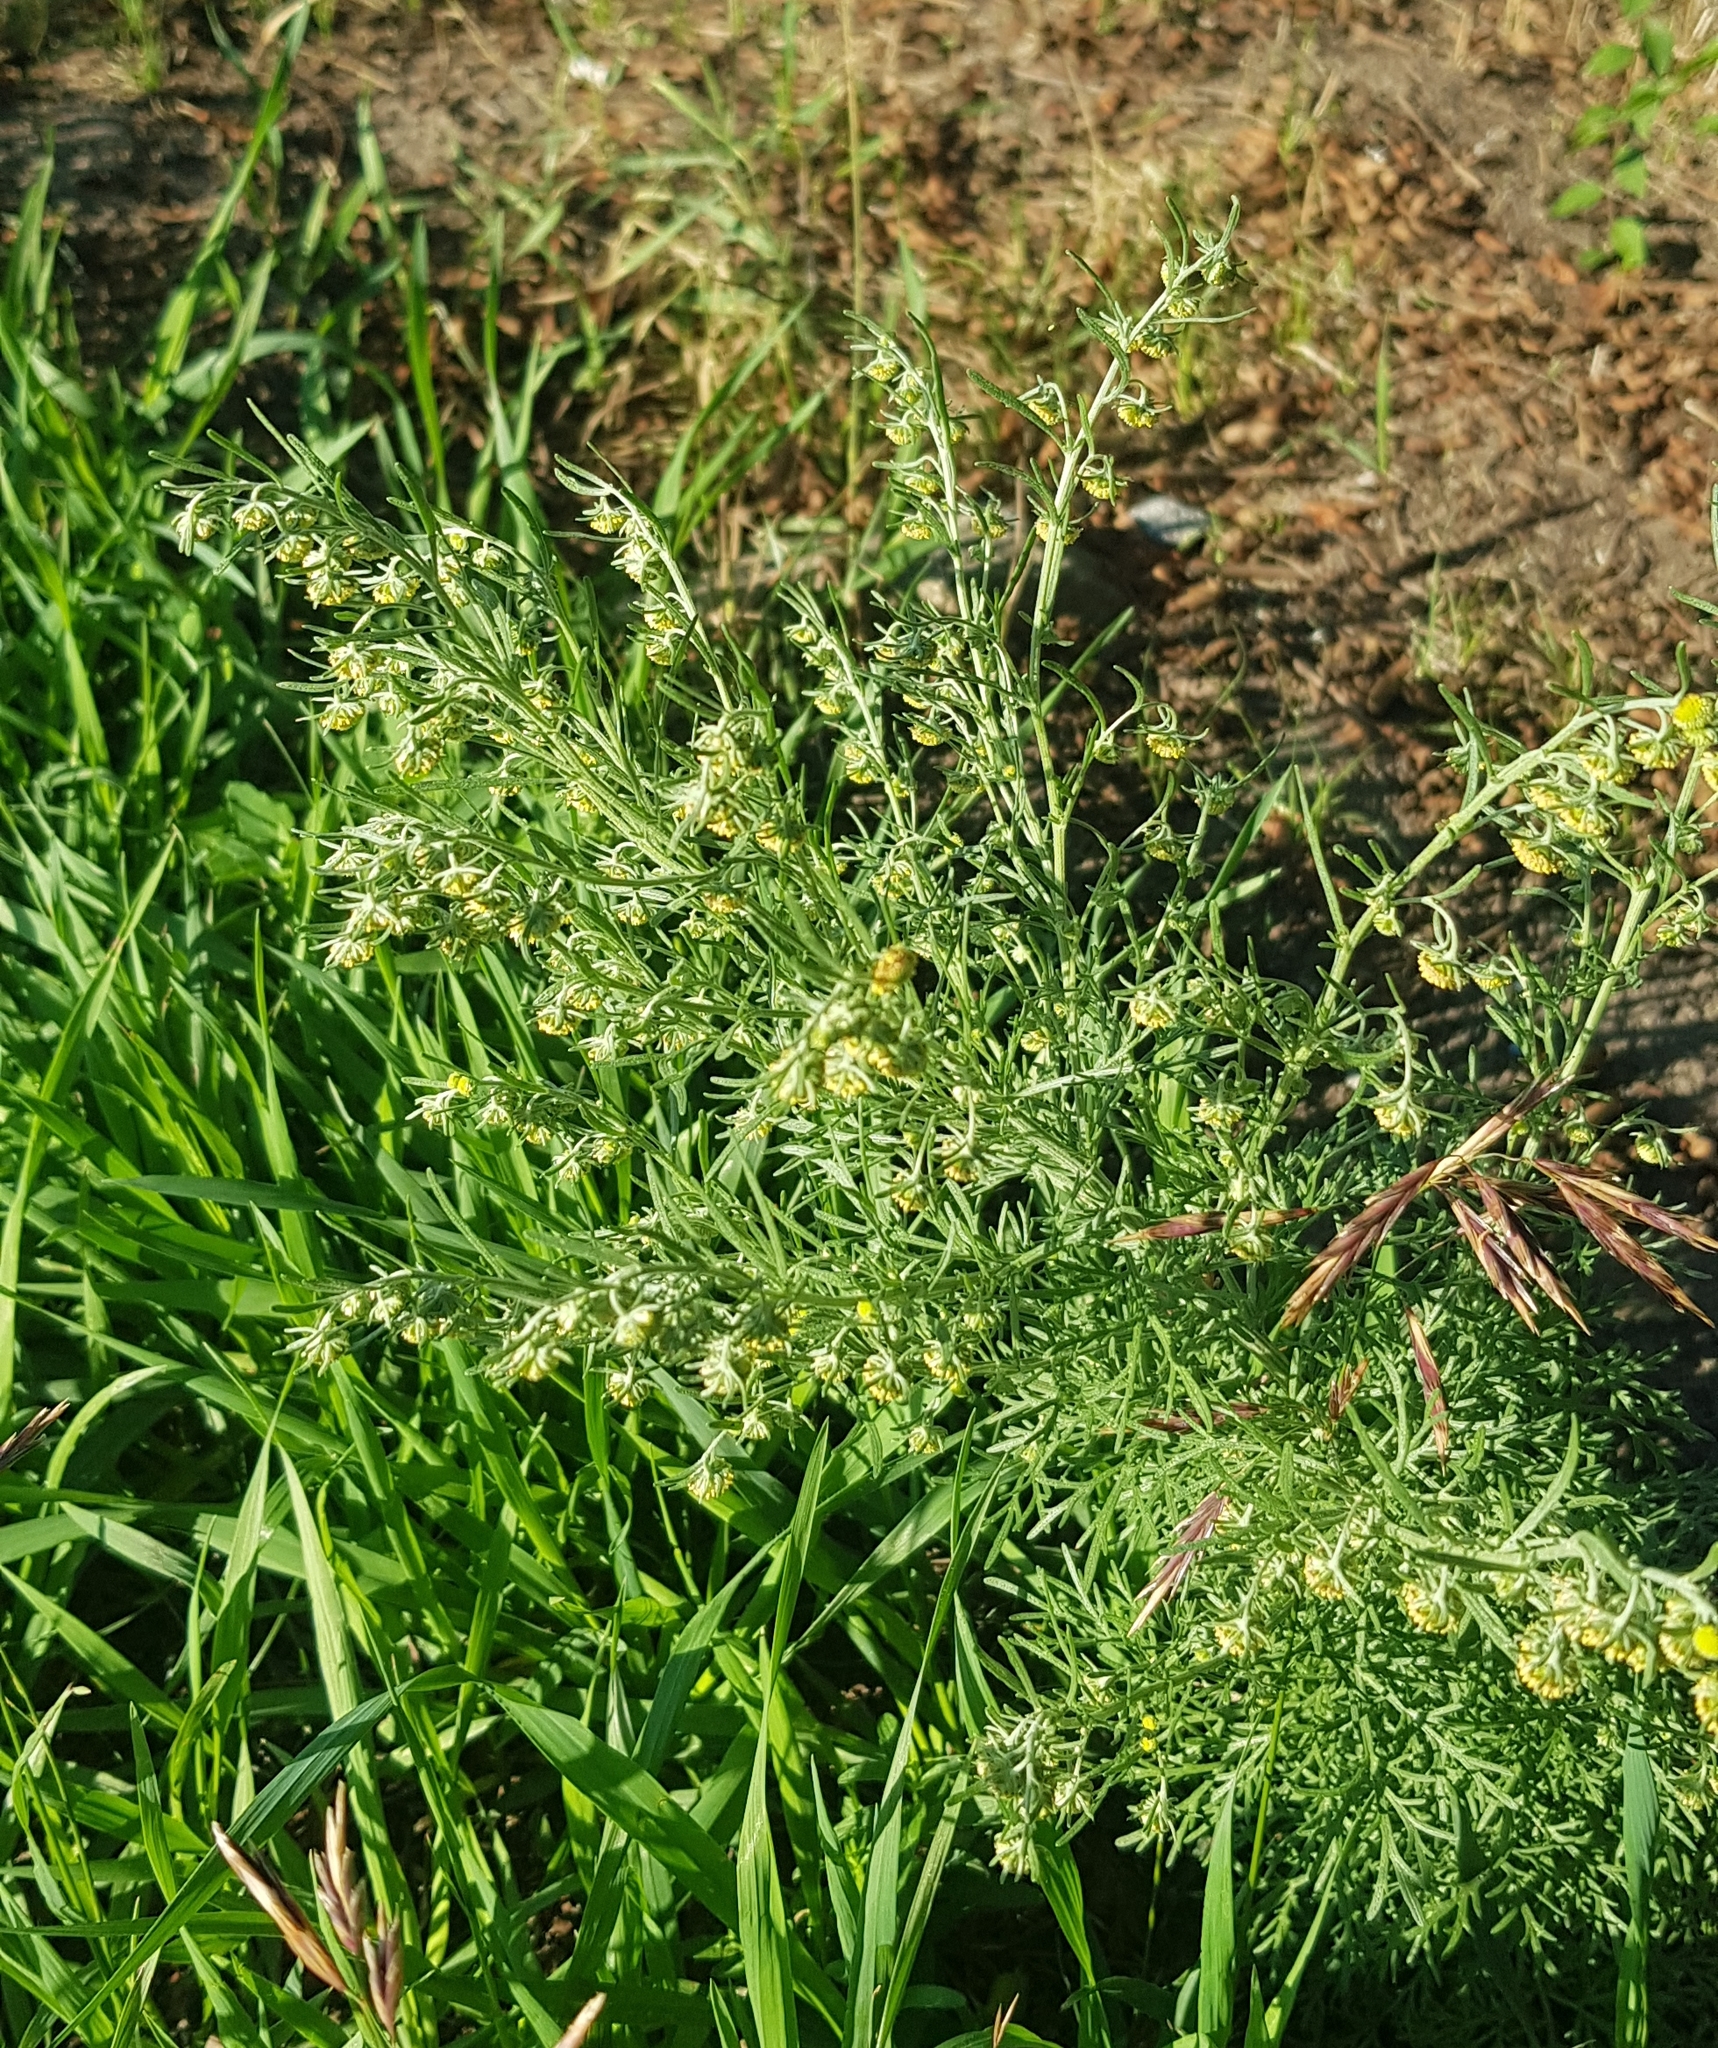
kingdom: Plantae
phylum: Tracheophyta
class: Magnoliopsida
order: Asterales
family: Asteraceae
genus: Artemisia
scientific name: Artemisia sieversiana
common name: Sieversian wormwood
